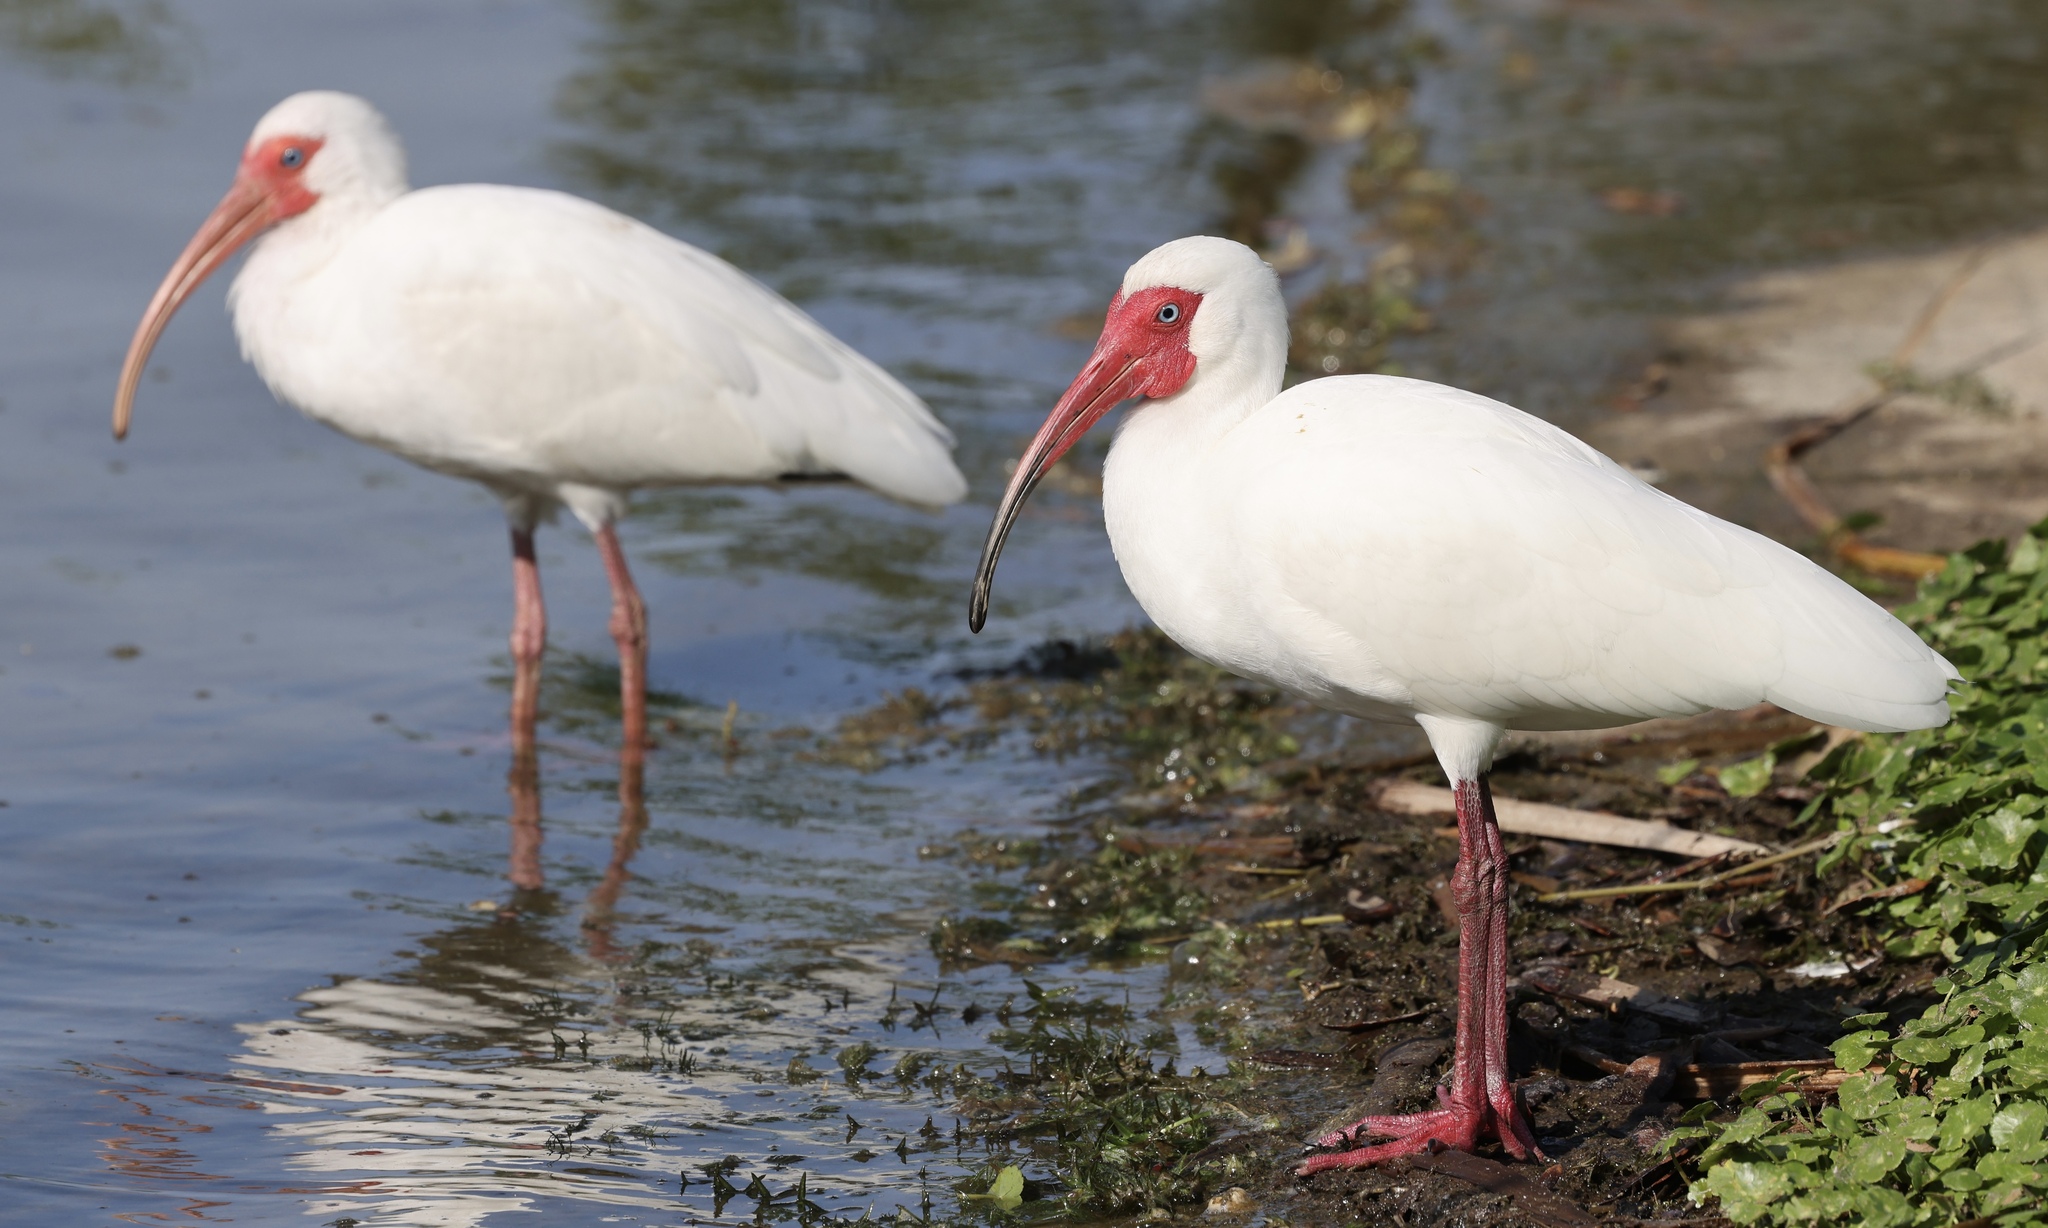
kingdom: Animalia
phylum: Chordata
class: Aves
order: Pelecaniformes
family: Threskiornithidae
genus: Eudocimus
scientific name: Eudocimus albus
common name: White ibis
